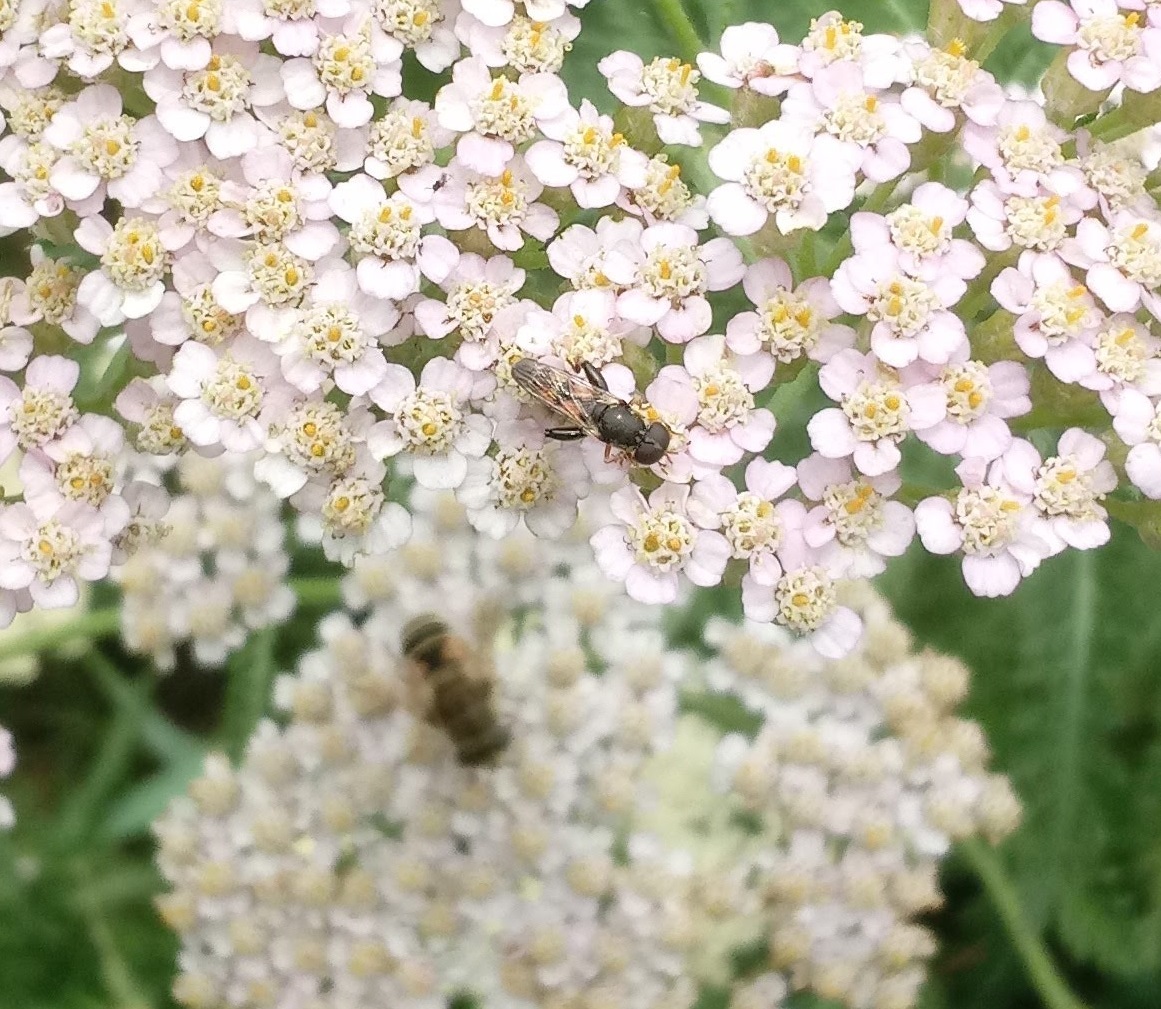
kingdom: Animalia
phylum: Arthropoda
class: Insecta
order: Diptera
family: Syrphidae
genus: Syritta
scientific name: Syritta pipiens
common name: Hover fly
